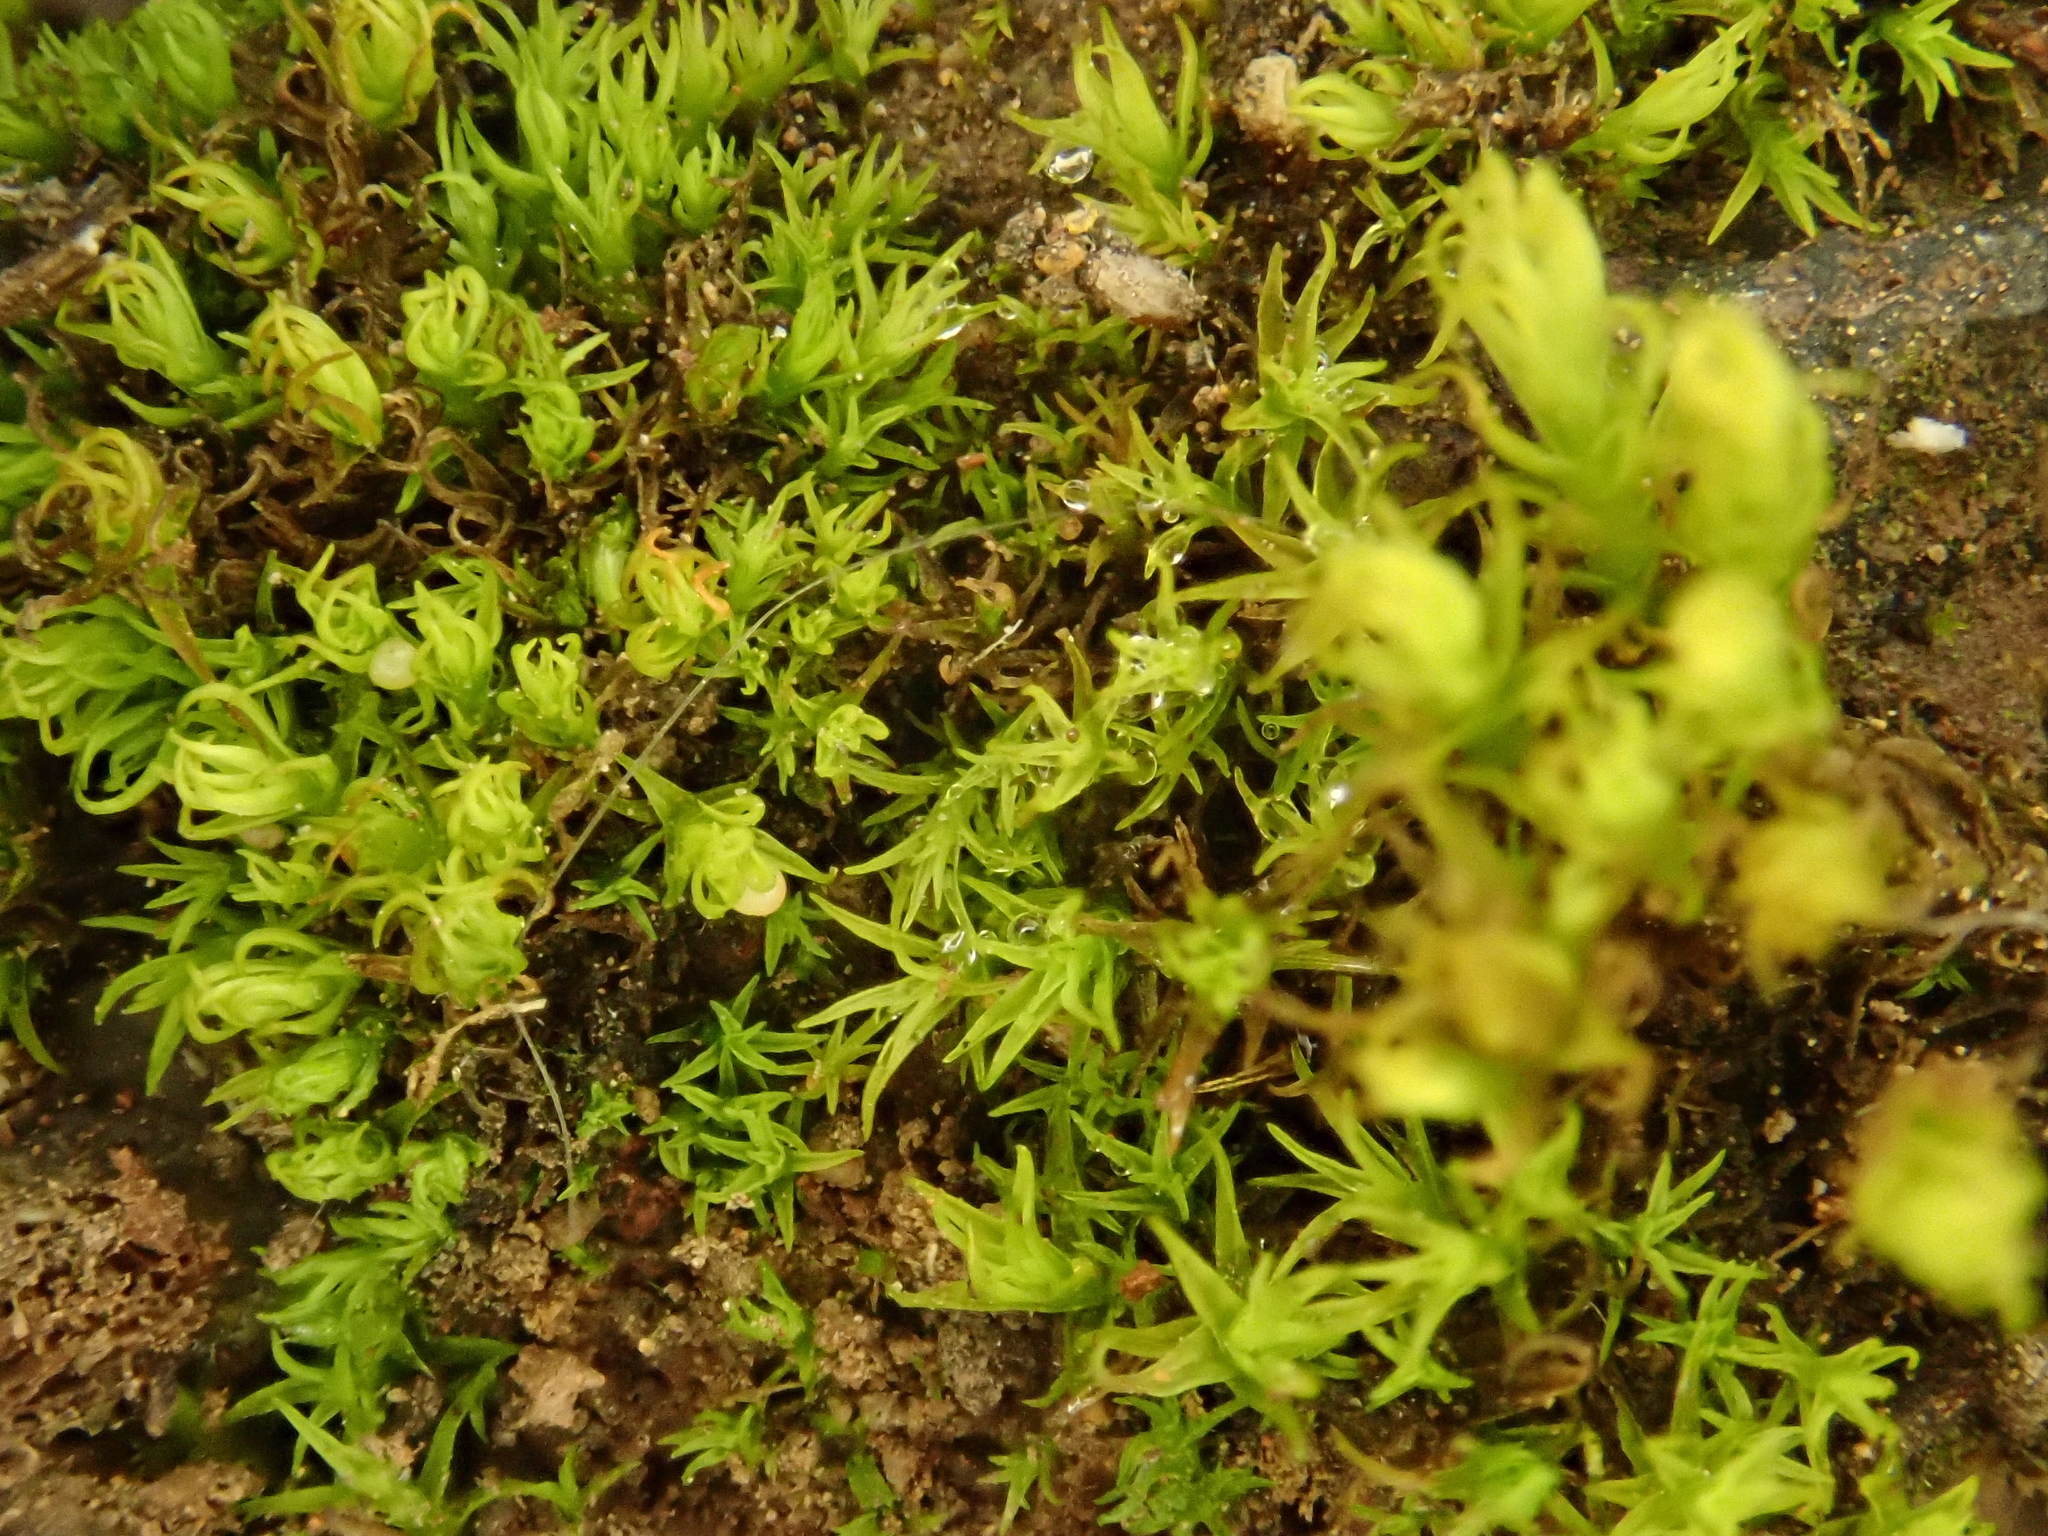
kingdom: Plantae
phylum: Bryophyta
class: Bryopsida
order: Pottiales
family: Pottiaceae
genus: Vinealobryum
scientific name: Vinealobryum insulanum
